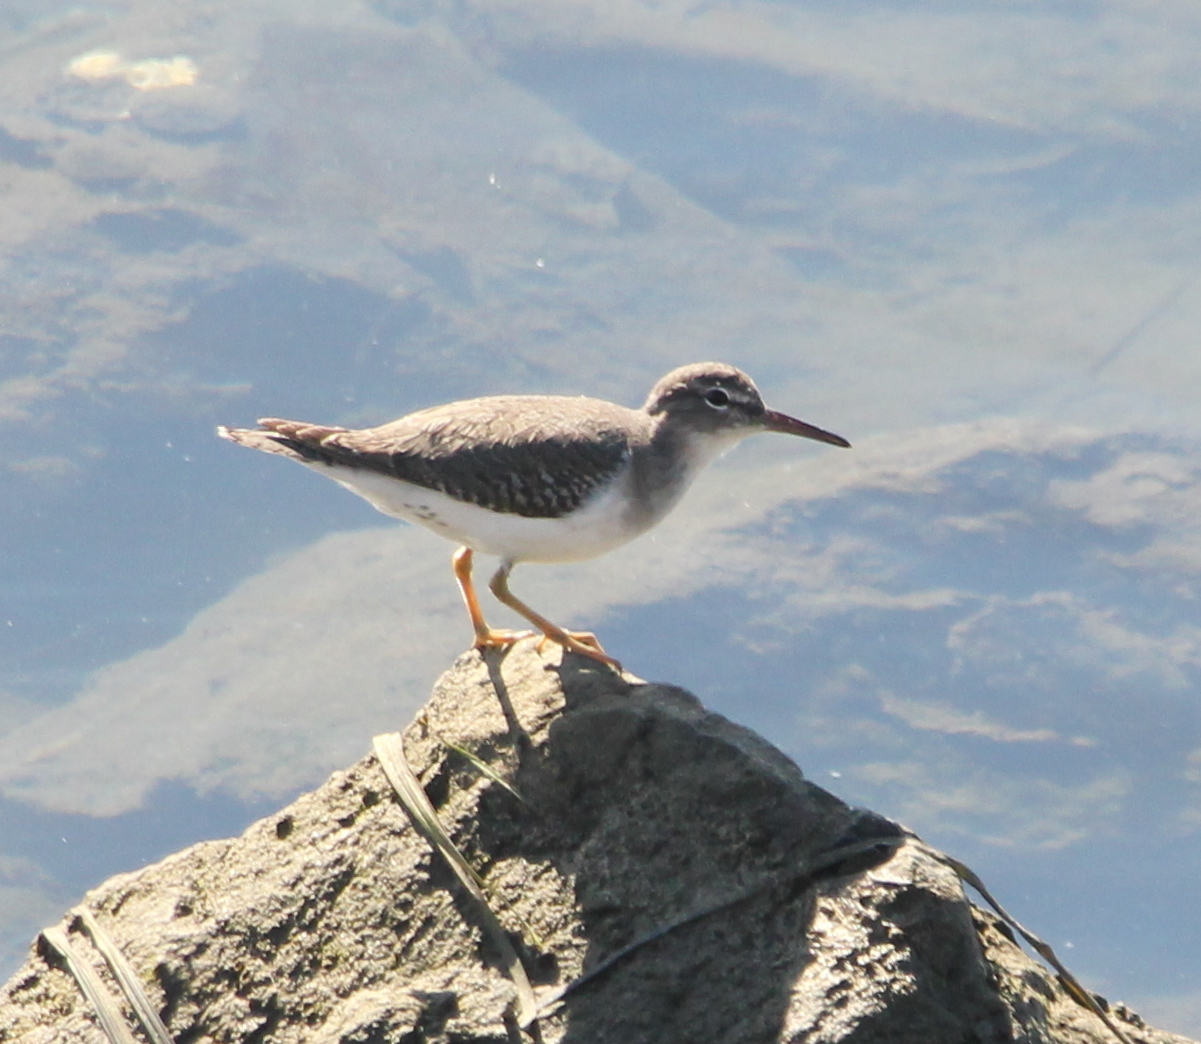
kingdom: Animalia
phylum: Chordata
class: Aves
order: Charadriiformes
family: Scolopacidae
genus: Actitis
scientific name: Actitis macularius
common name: Spotted sandpiper
